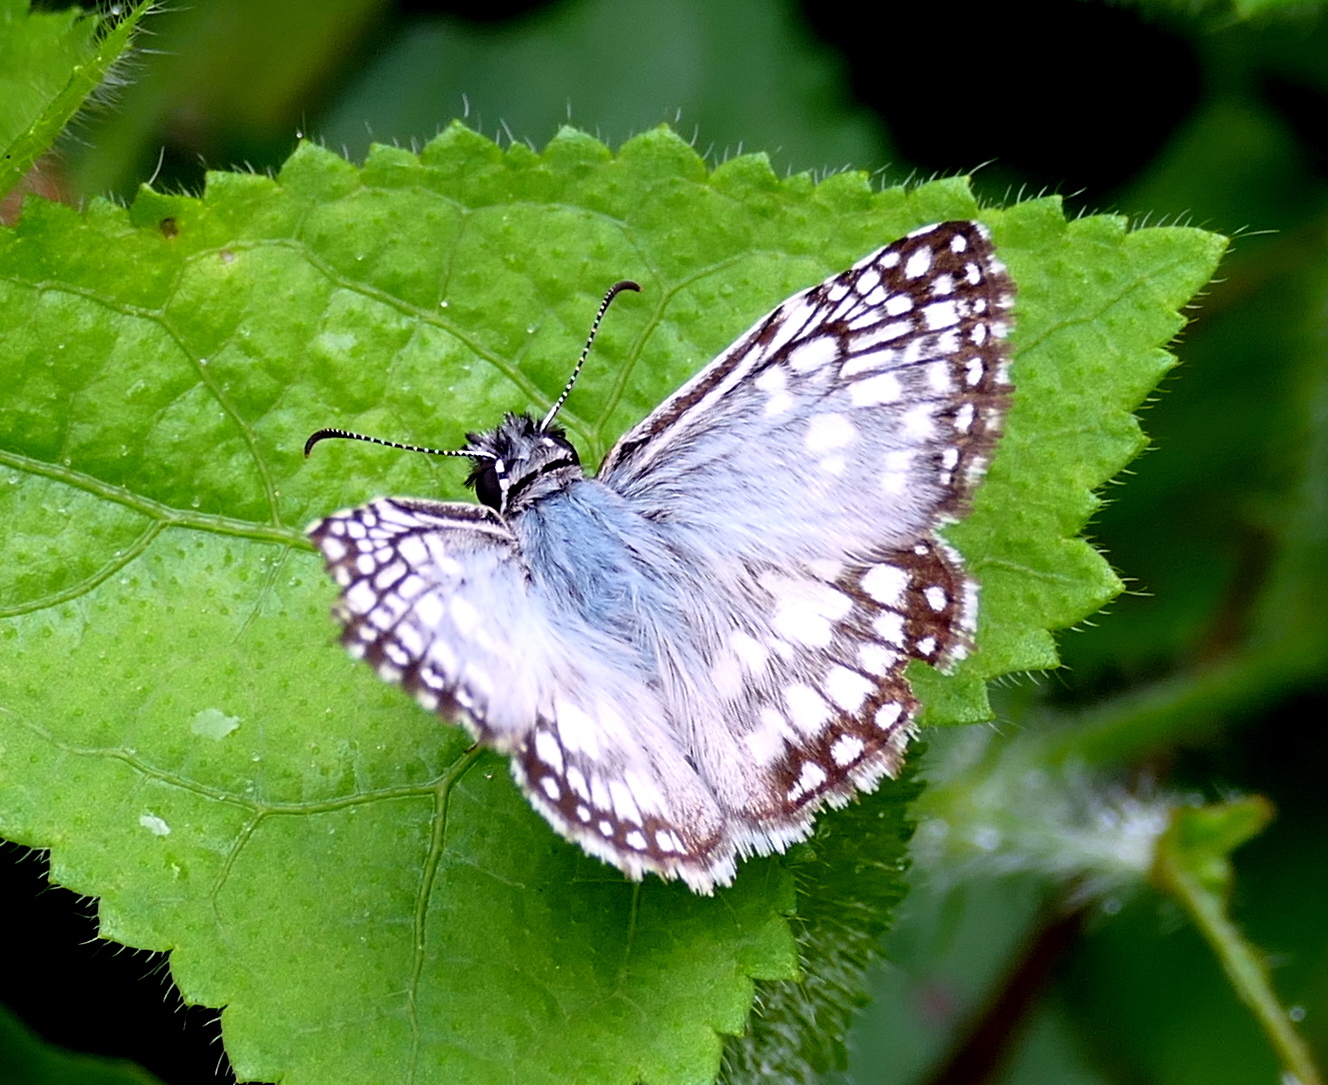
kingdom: Animalia
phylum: Arthropoda
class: Insecta
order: Lepidoptera
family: Hesperiidae
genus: Pyrgus
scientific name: Pyrgus oileus
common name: Tropical checkered-skipper
